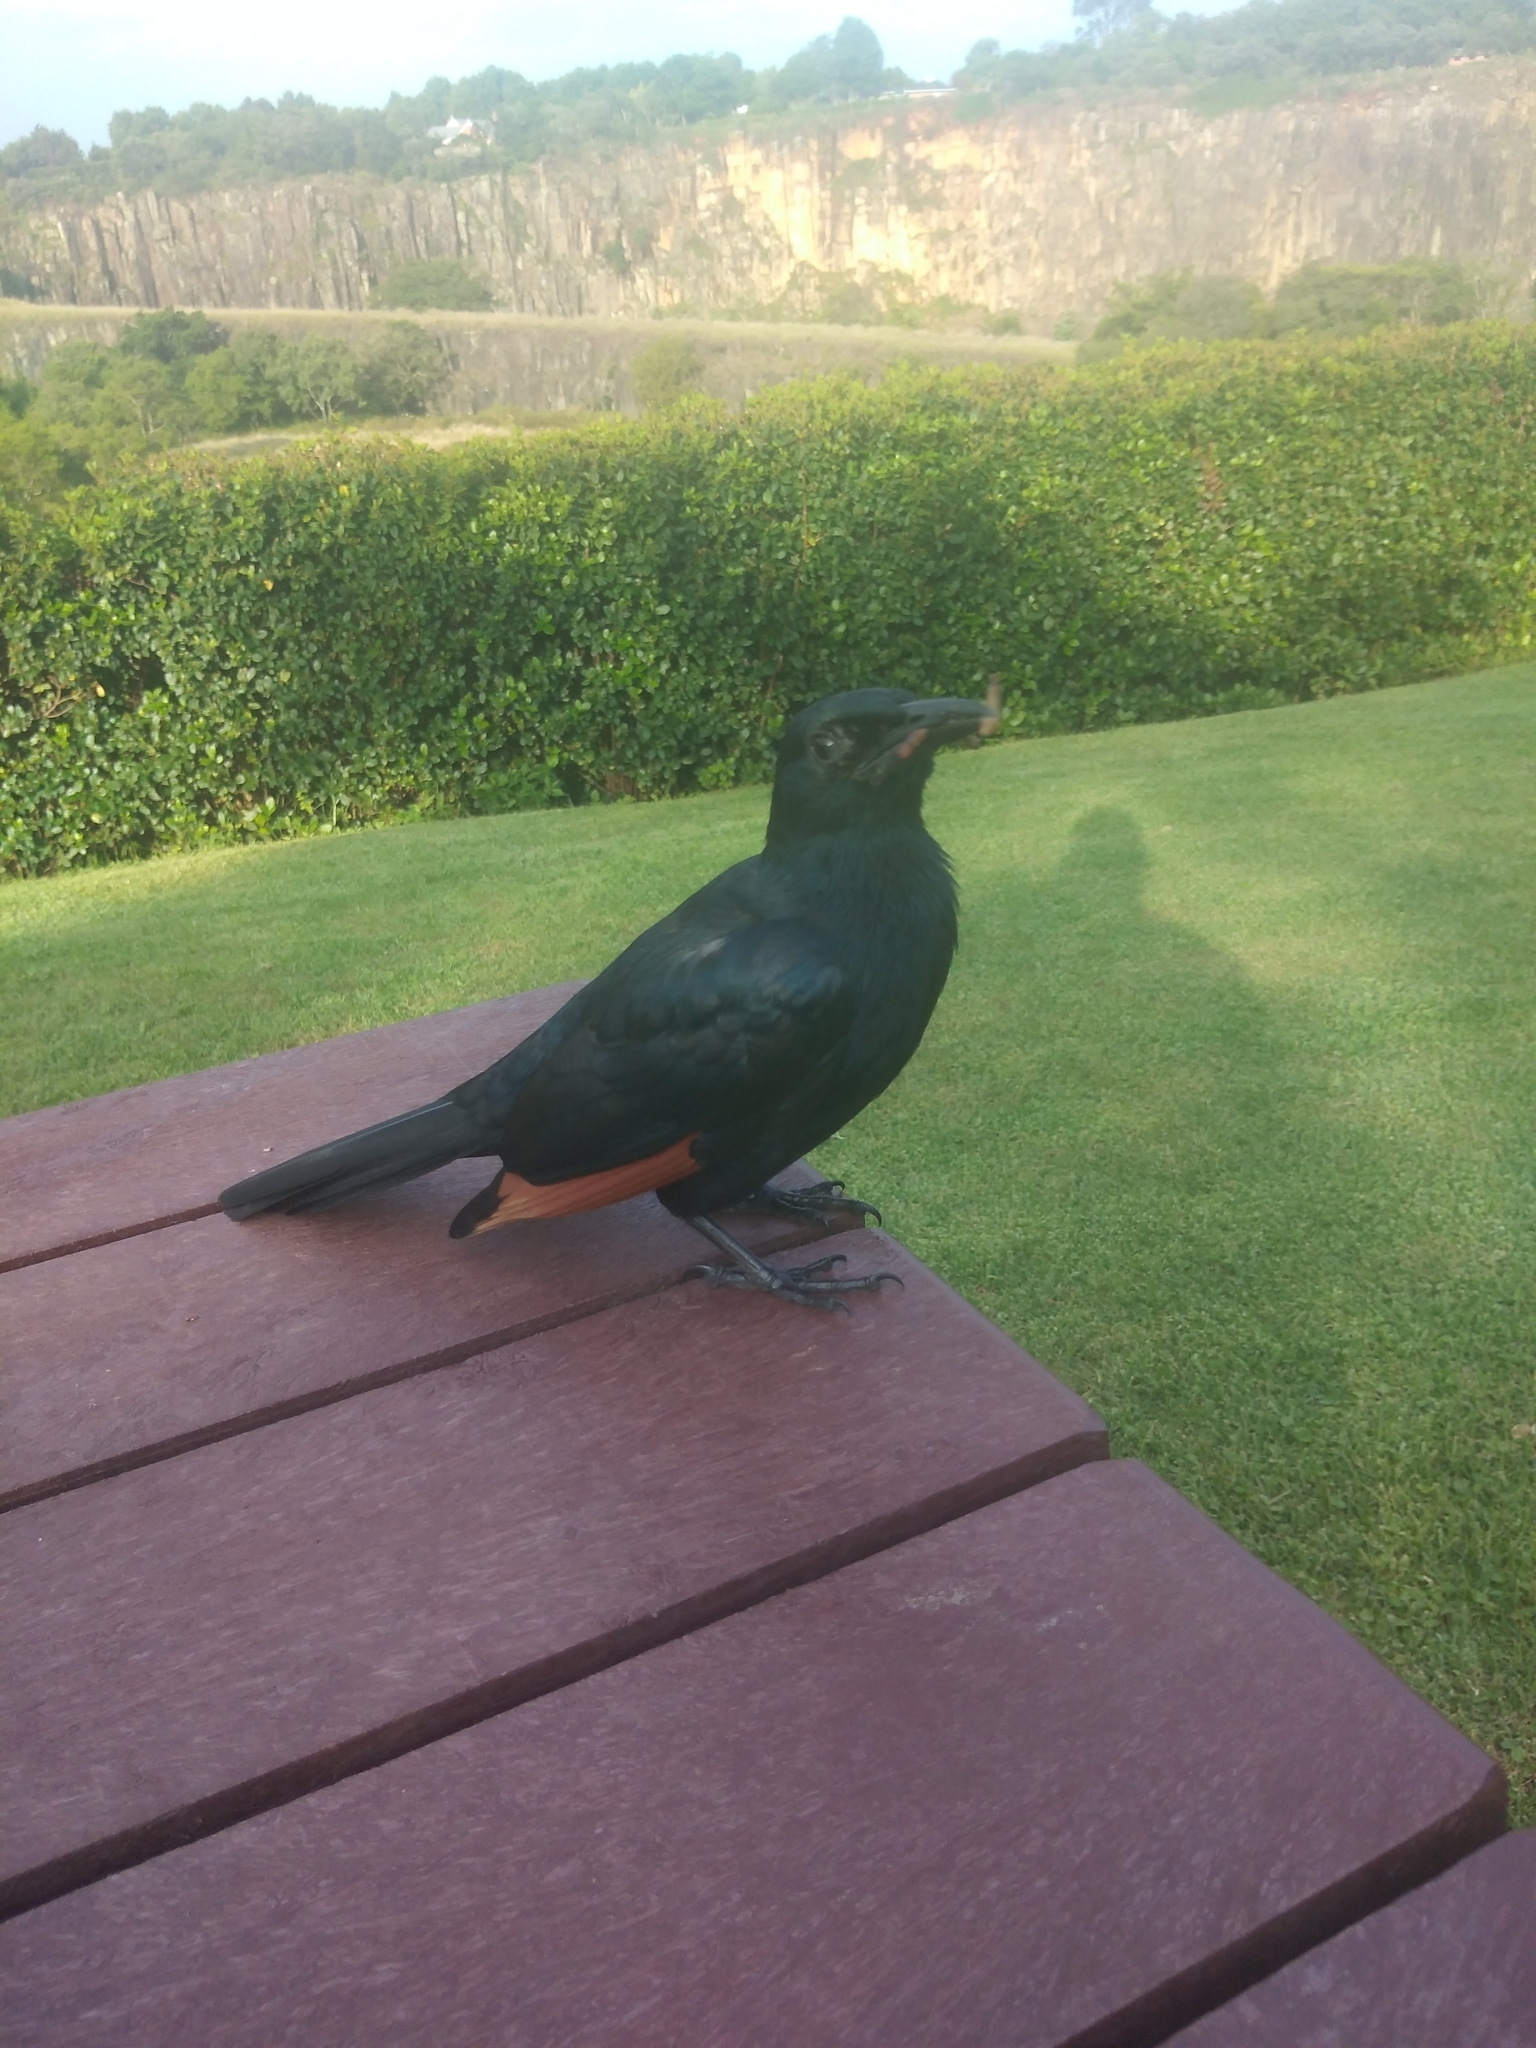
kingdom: Animalia
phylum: Chordata
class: Aves
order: Passeriformes
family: Sturnidae
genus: Onychognathus
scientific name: Onychognathus morio
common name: Red-winged starling
